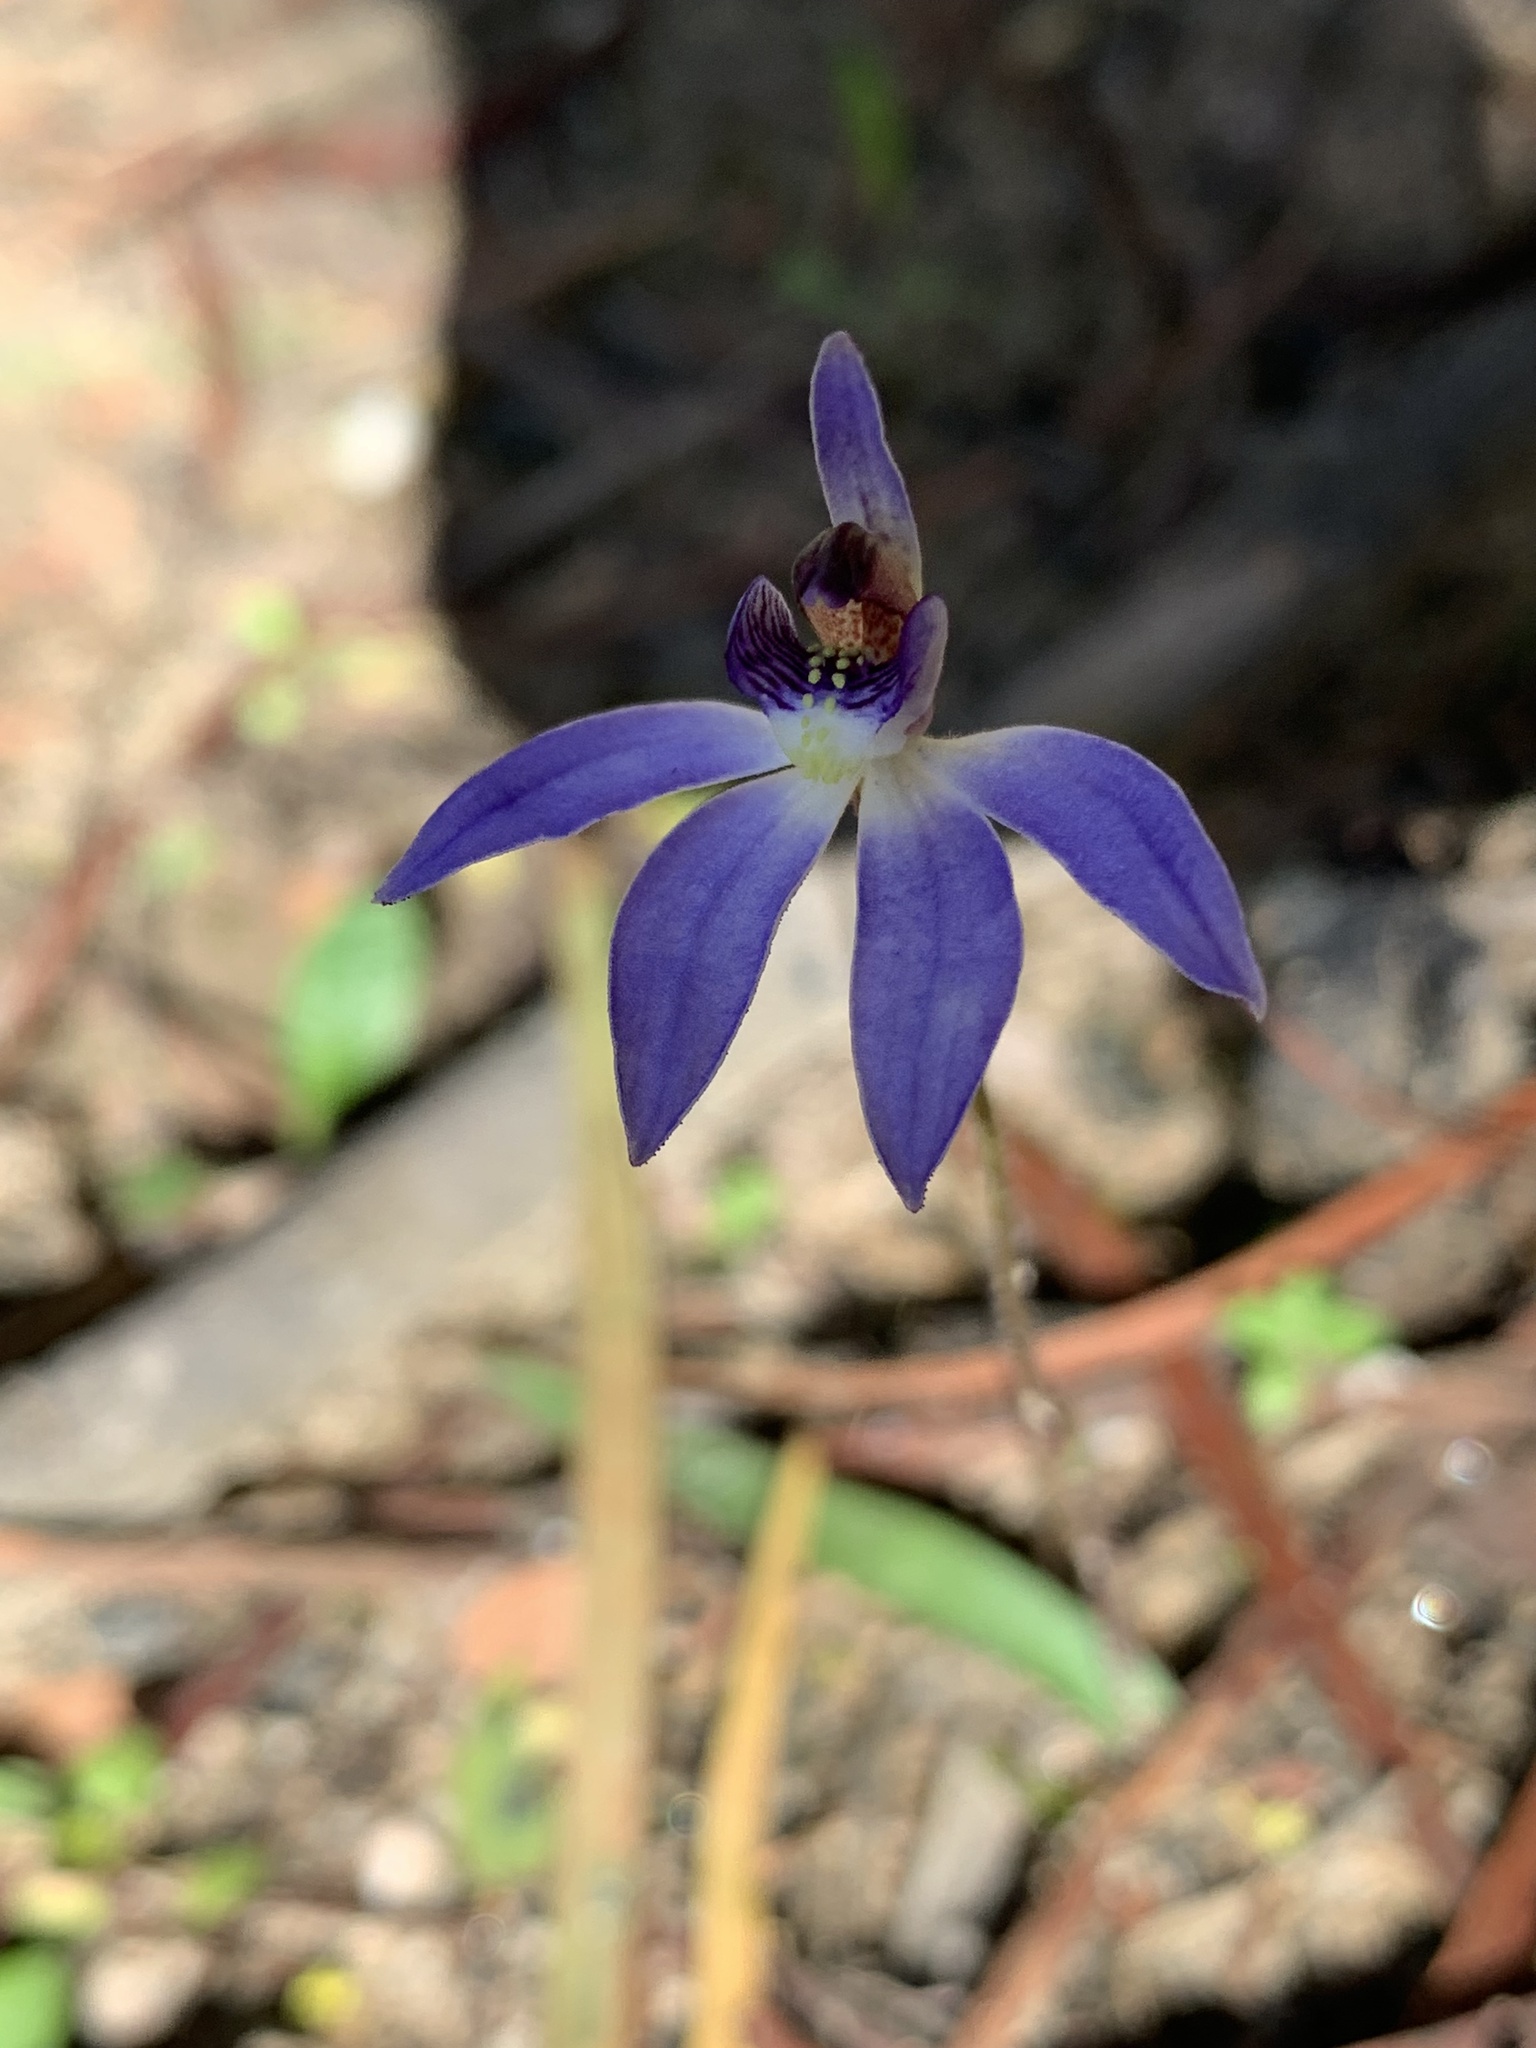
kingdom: Plantae
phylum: Tracheophyta
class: Liliopsida
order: Asparagales
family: Orchidaceae
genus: Caladenia
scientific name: Caladenia caerulea
